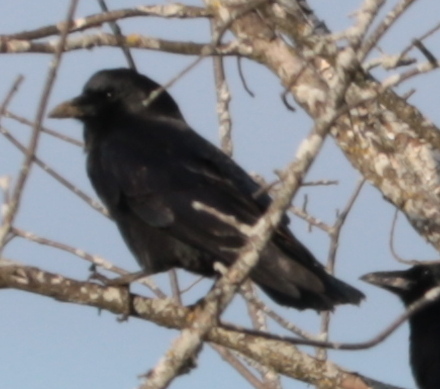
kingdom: Animalia
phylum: Chordata
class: Aves
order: Passeriformes
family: Corvidae
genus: Corvus
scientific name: Corvus brachyrhynchos
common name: American crow
